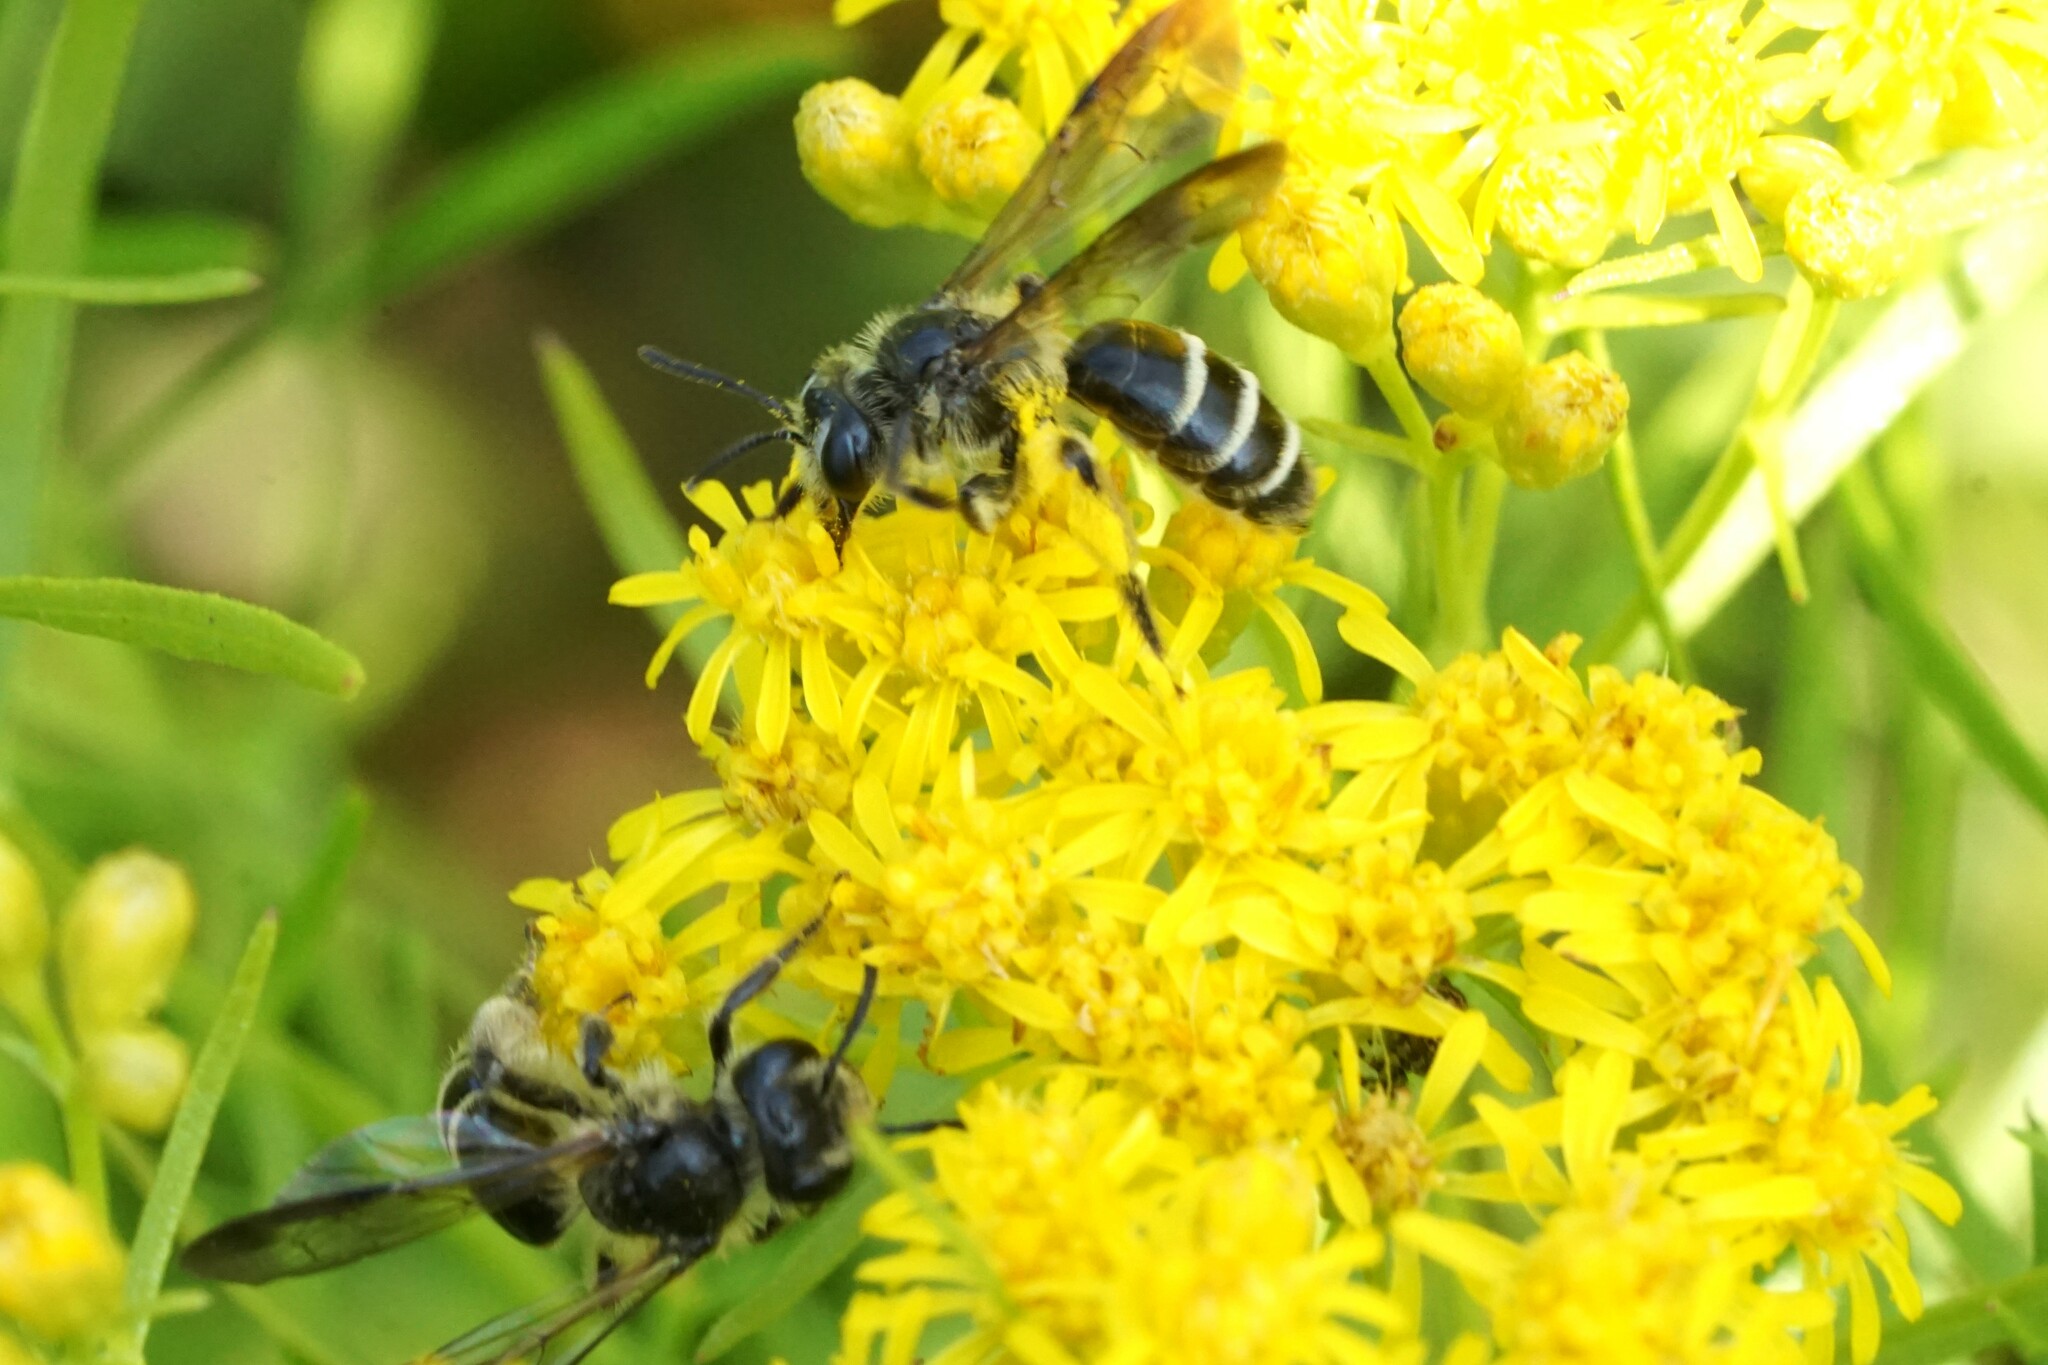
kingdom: Animalia
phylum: Arthropoda
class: Insecta
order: Hymenoptera
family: Andrenidae
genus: Andrena
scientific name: Andrena nubecula
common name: Cloudy-winged mining bee
